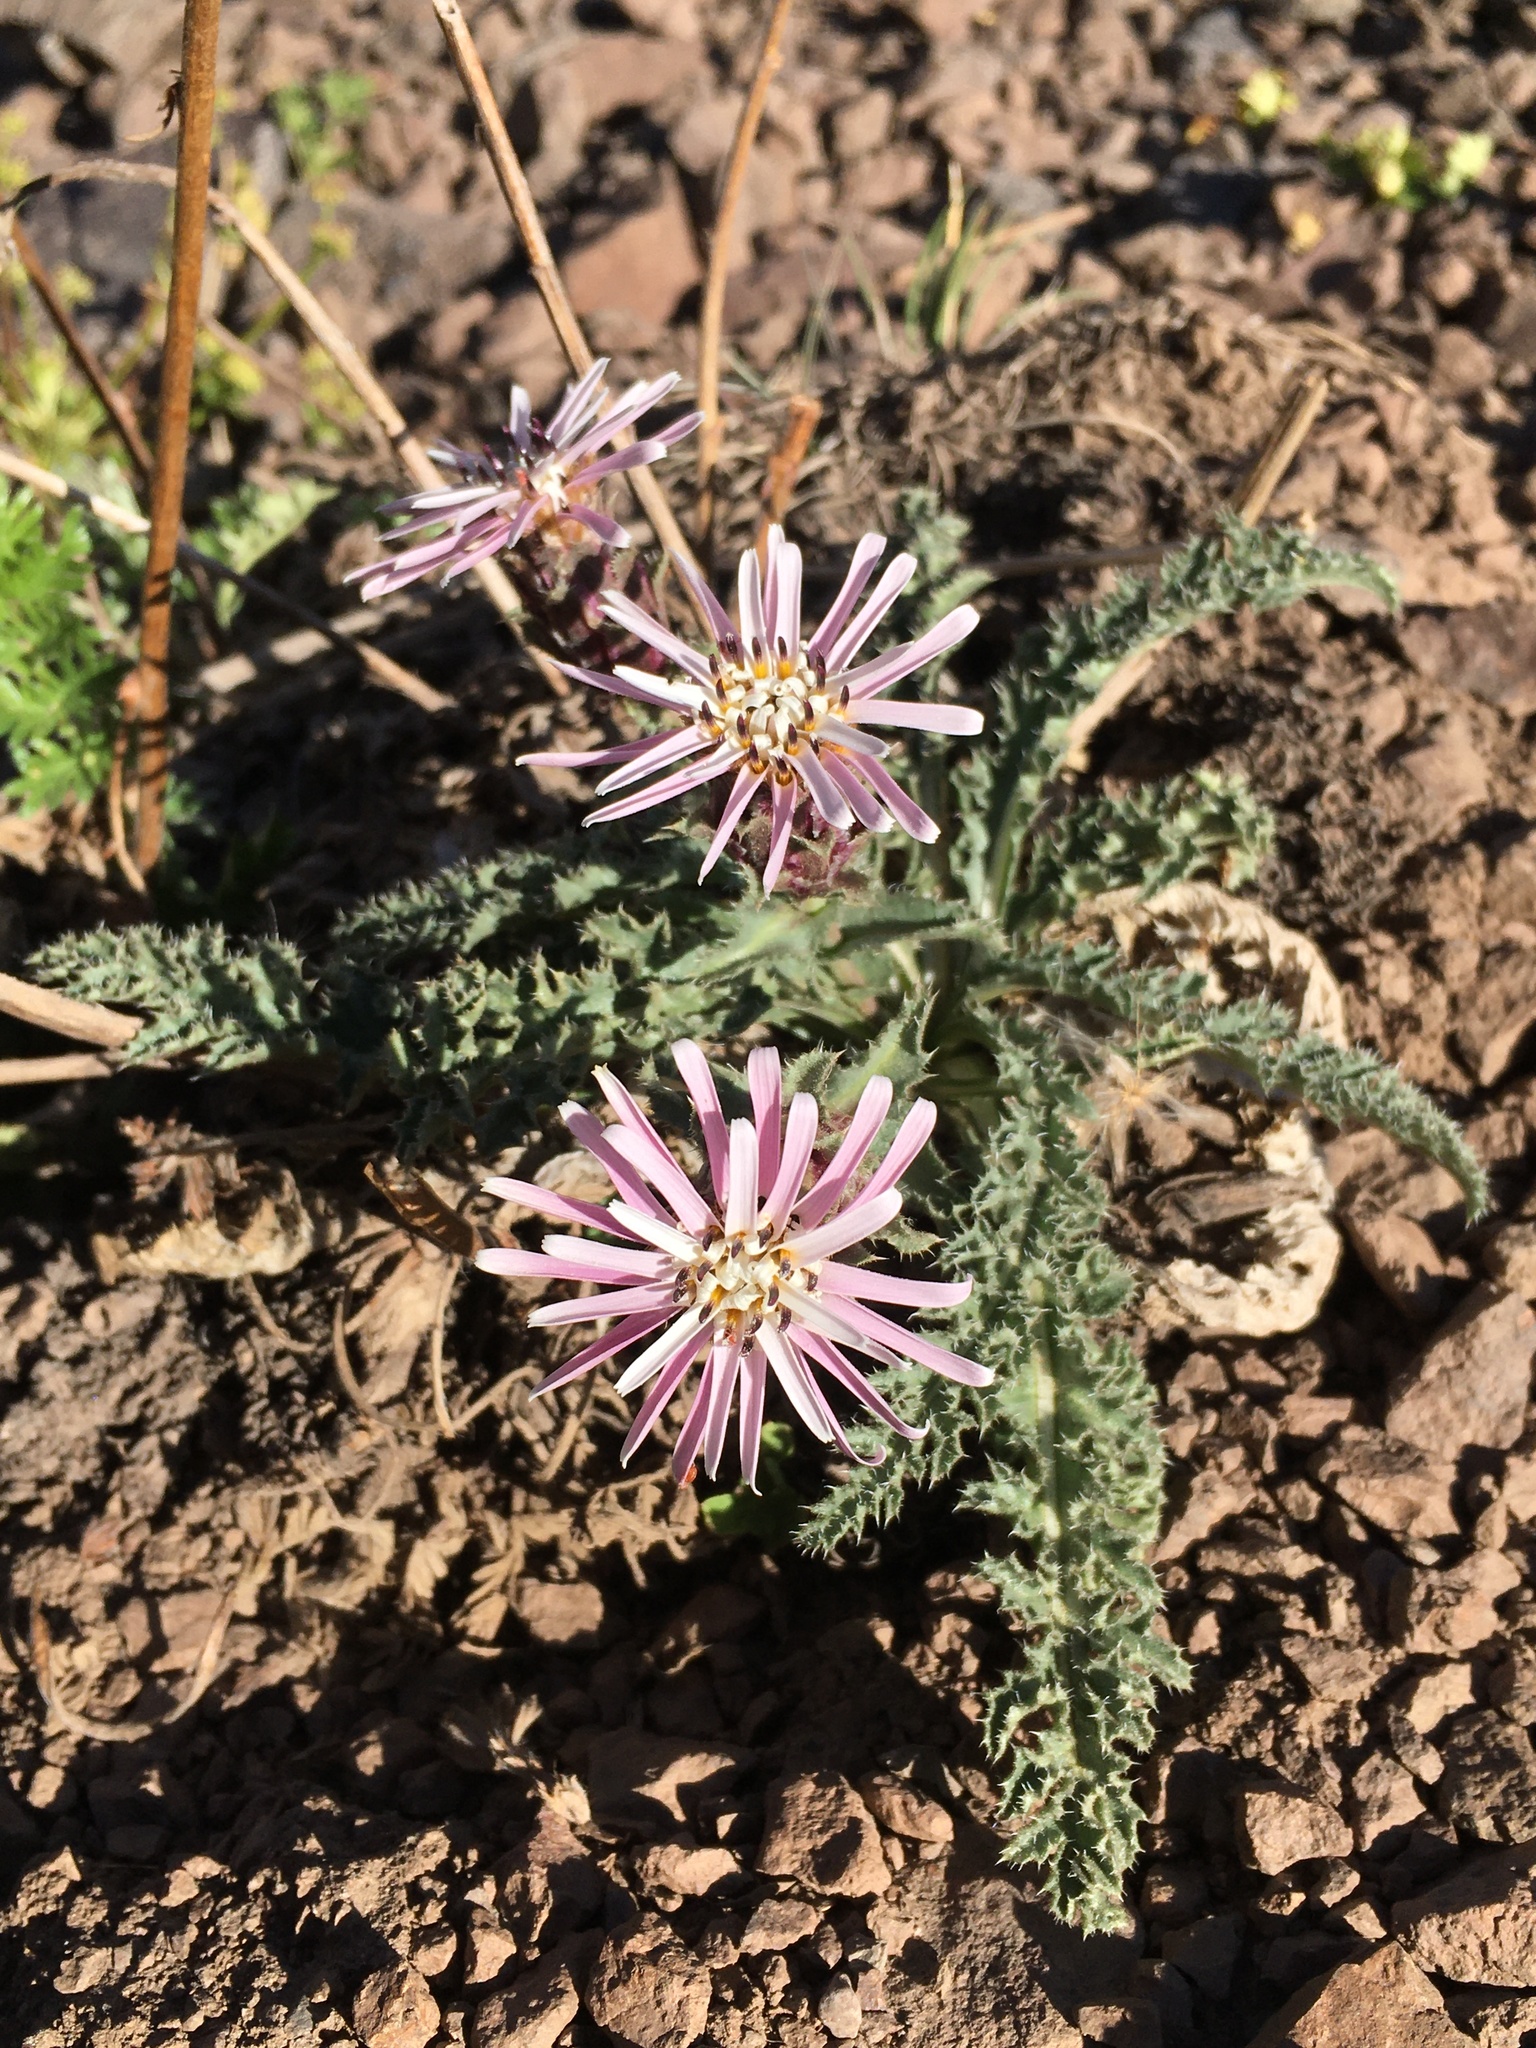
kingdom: Plantae
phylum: Tracheophyta
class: Magnoliopsida
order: Asterales
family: Asteraceae
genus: Perezia
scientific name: Perezia carthamoides
